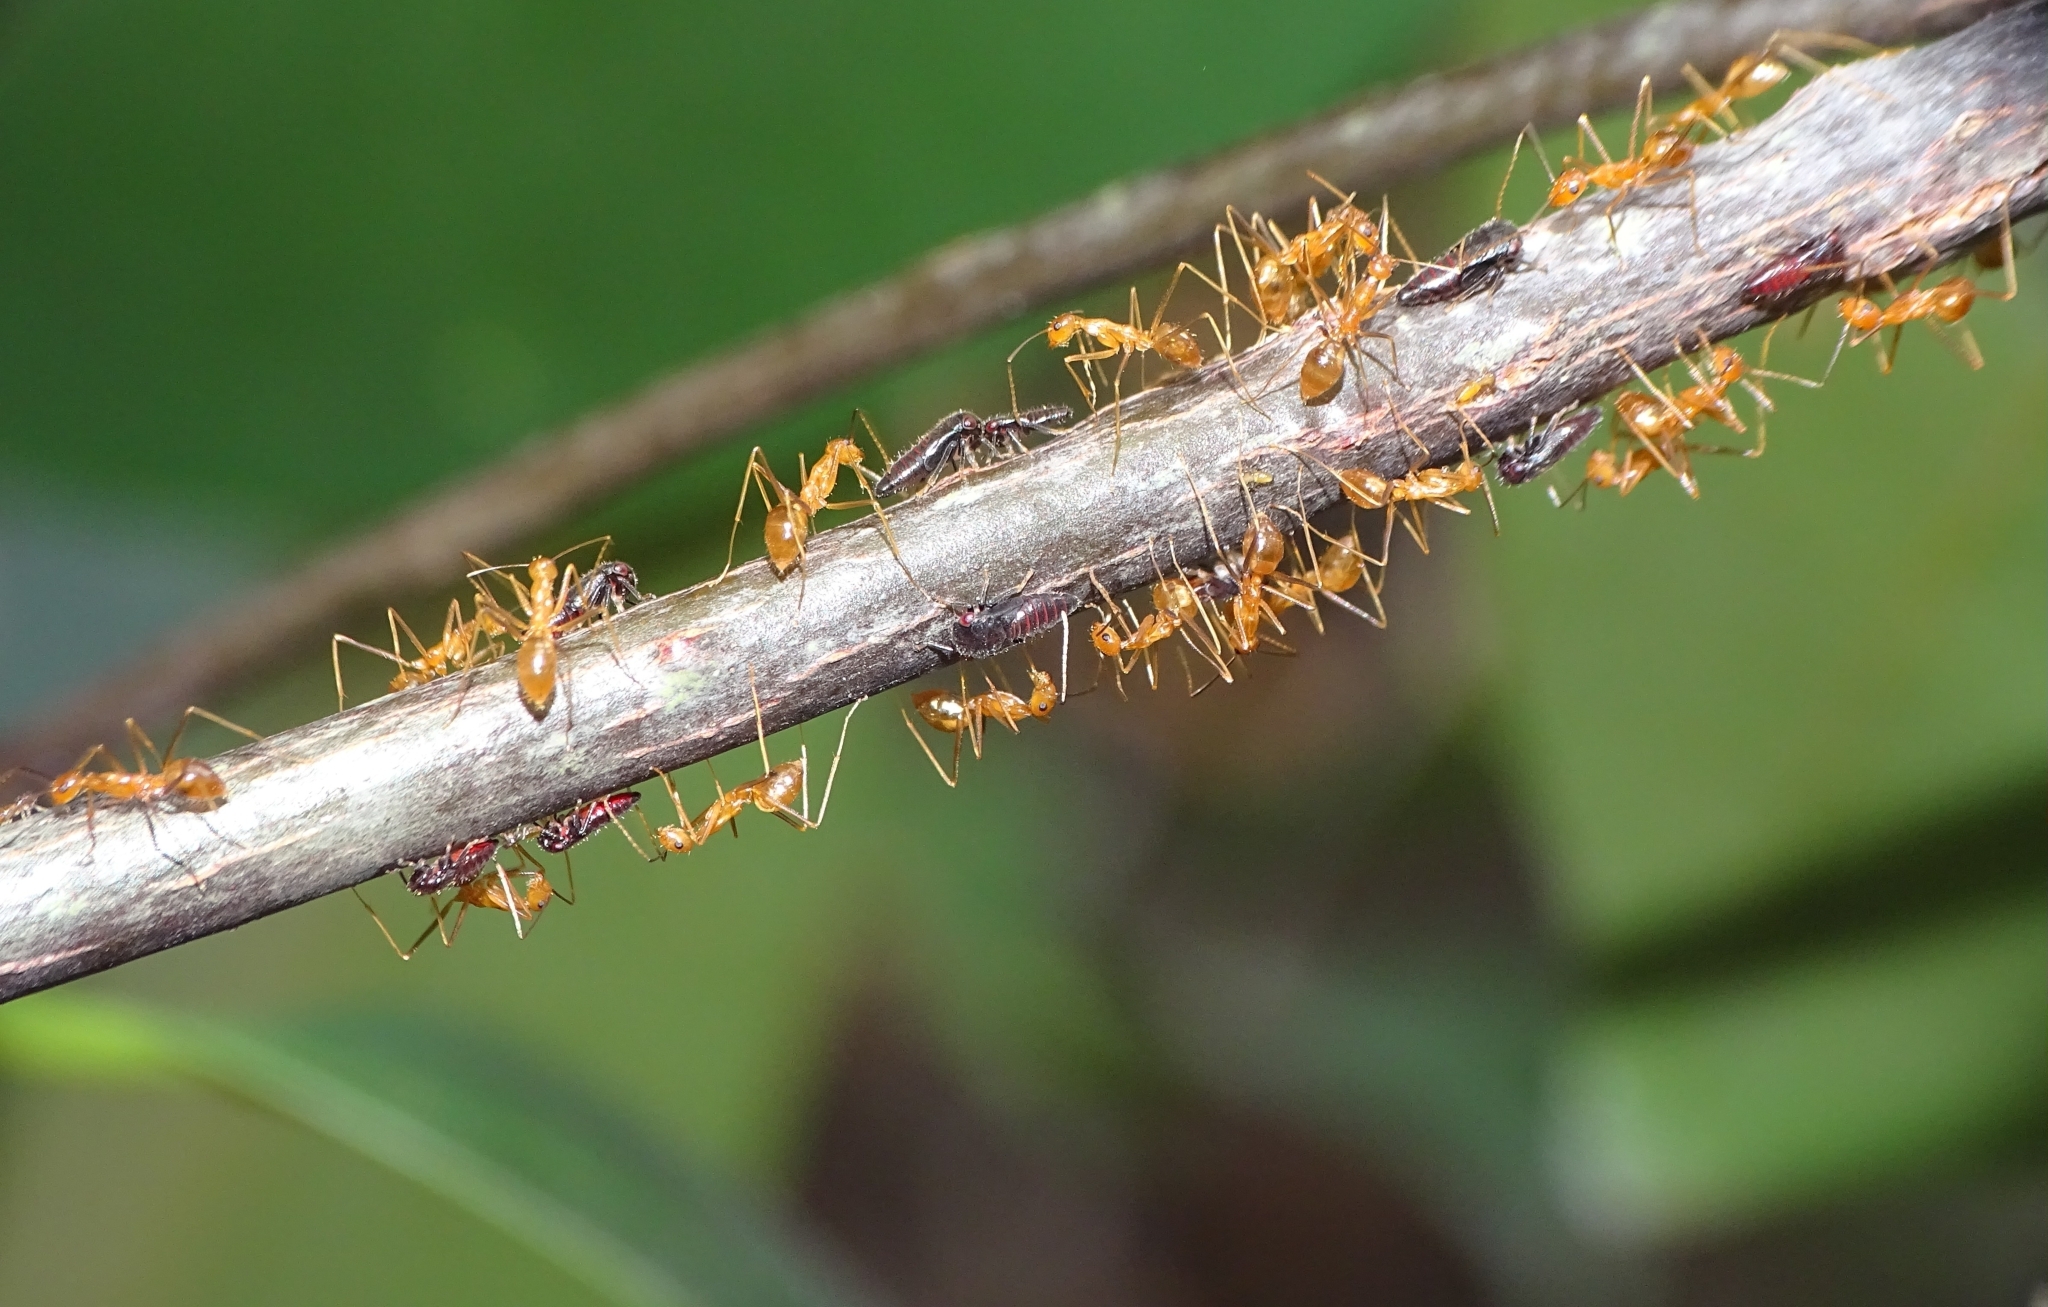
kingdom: Animalia
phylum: Arthropoda
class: Insecta
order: Hymenoptera
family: Formicidae
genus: Anoplolepis
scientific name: Anoplolepis gracilipes
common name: Ant
